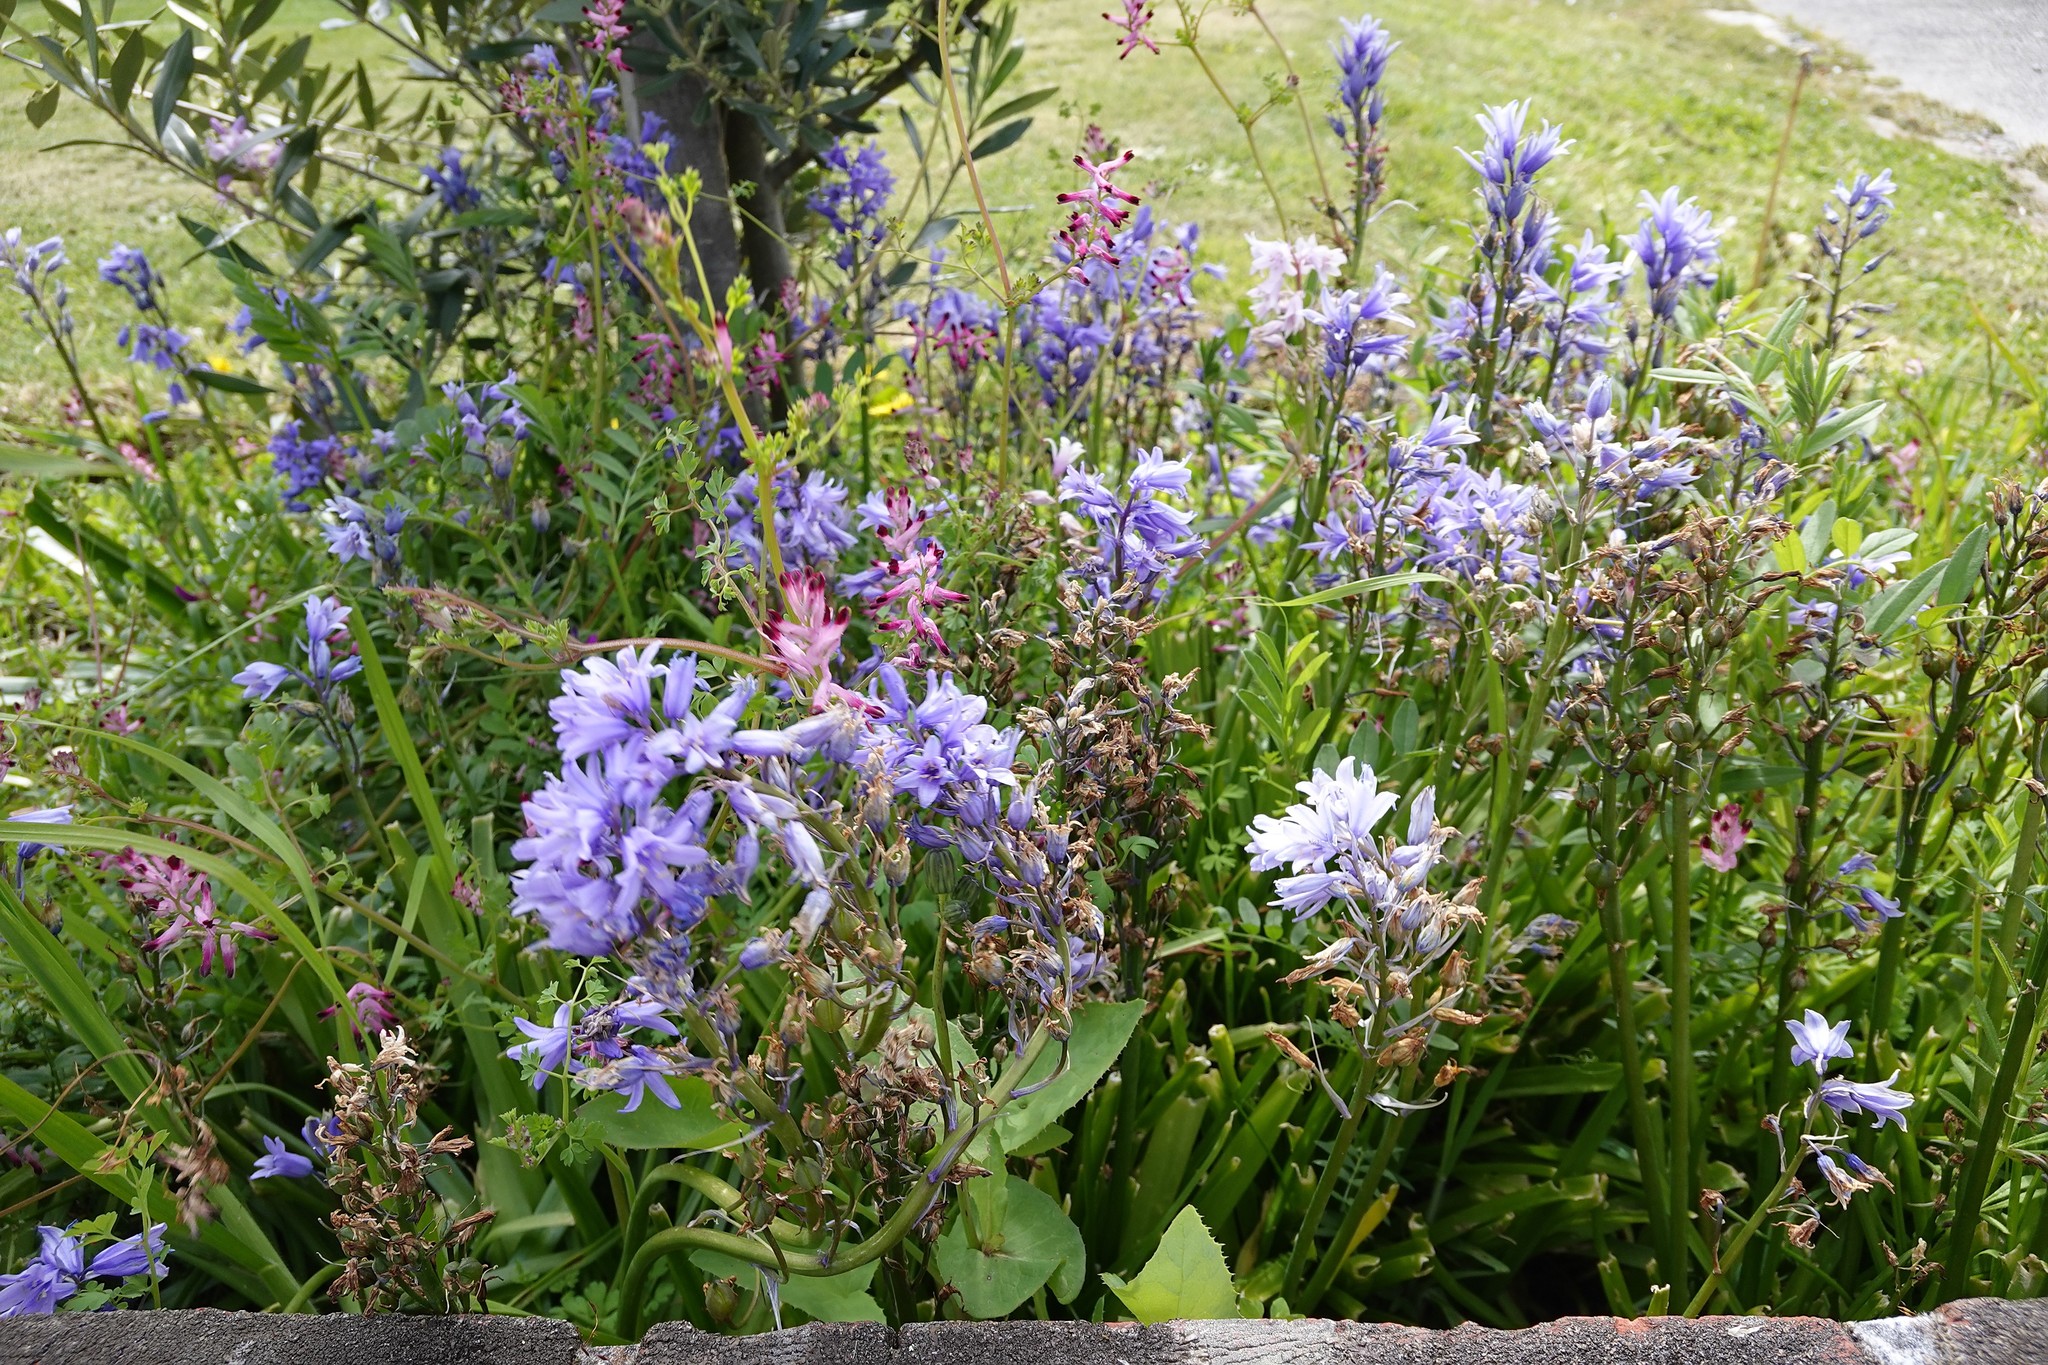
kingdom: Plantae
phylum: Tracheophyta
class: Liliopsida
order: Asparagales
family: Asparagaceae
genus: Hyacinthoides
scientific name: Hyacinthoides massartiana
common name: Hyacinthoides
